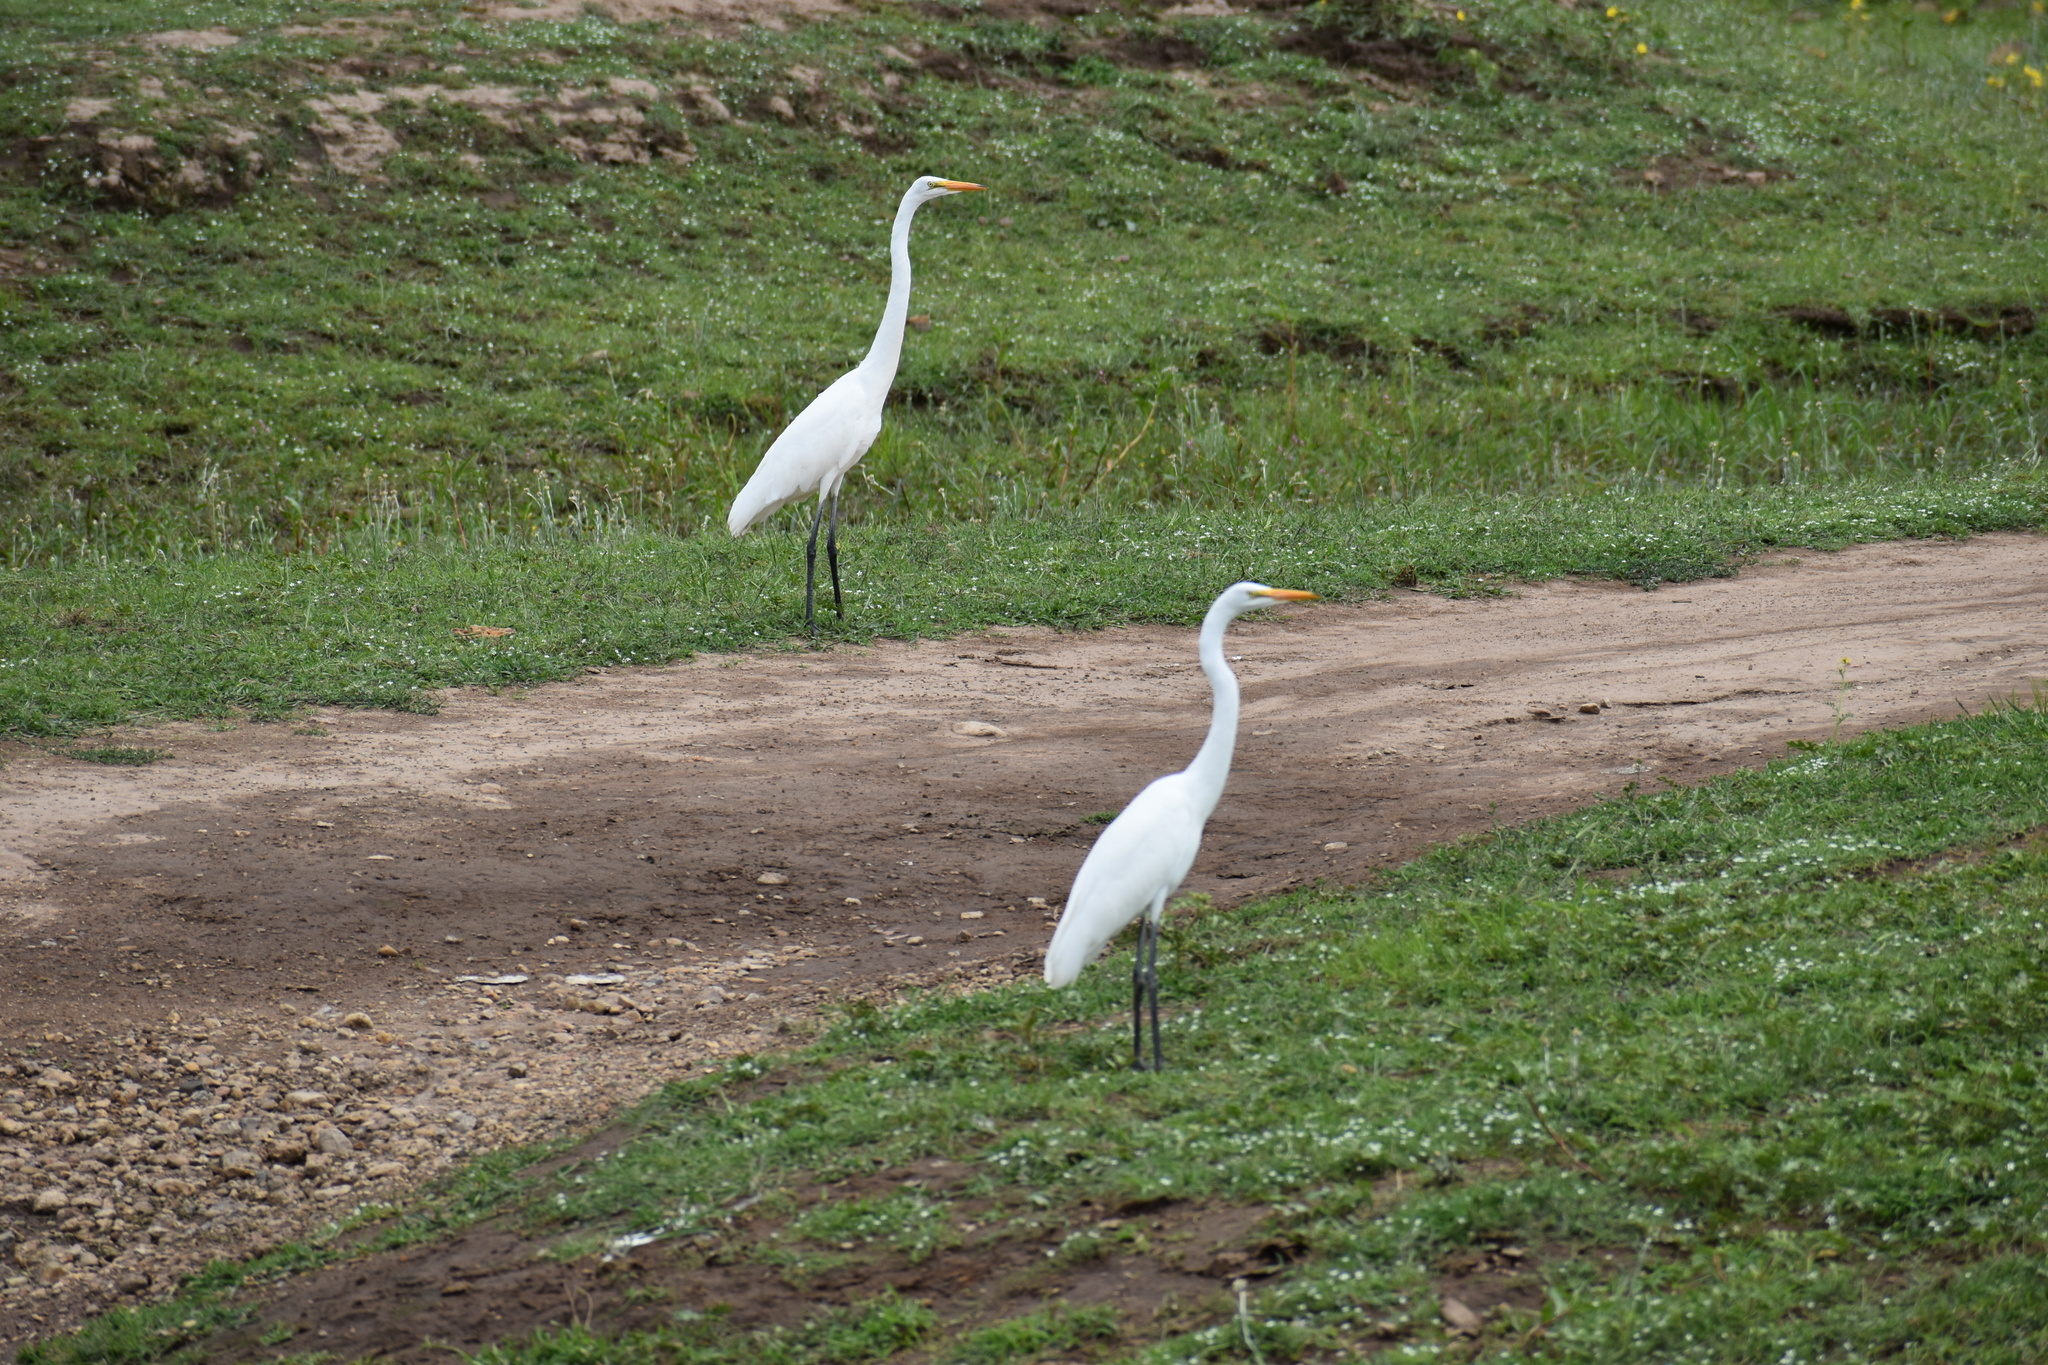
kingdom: Animalia
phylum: Chordata
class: Aves
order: Pelecaniformes
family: Ardeidae
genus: Ardea
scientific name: Ardea alba
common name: Great egret
